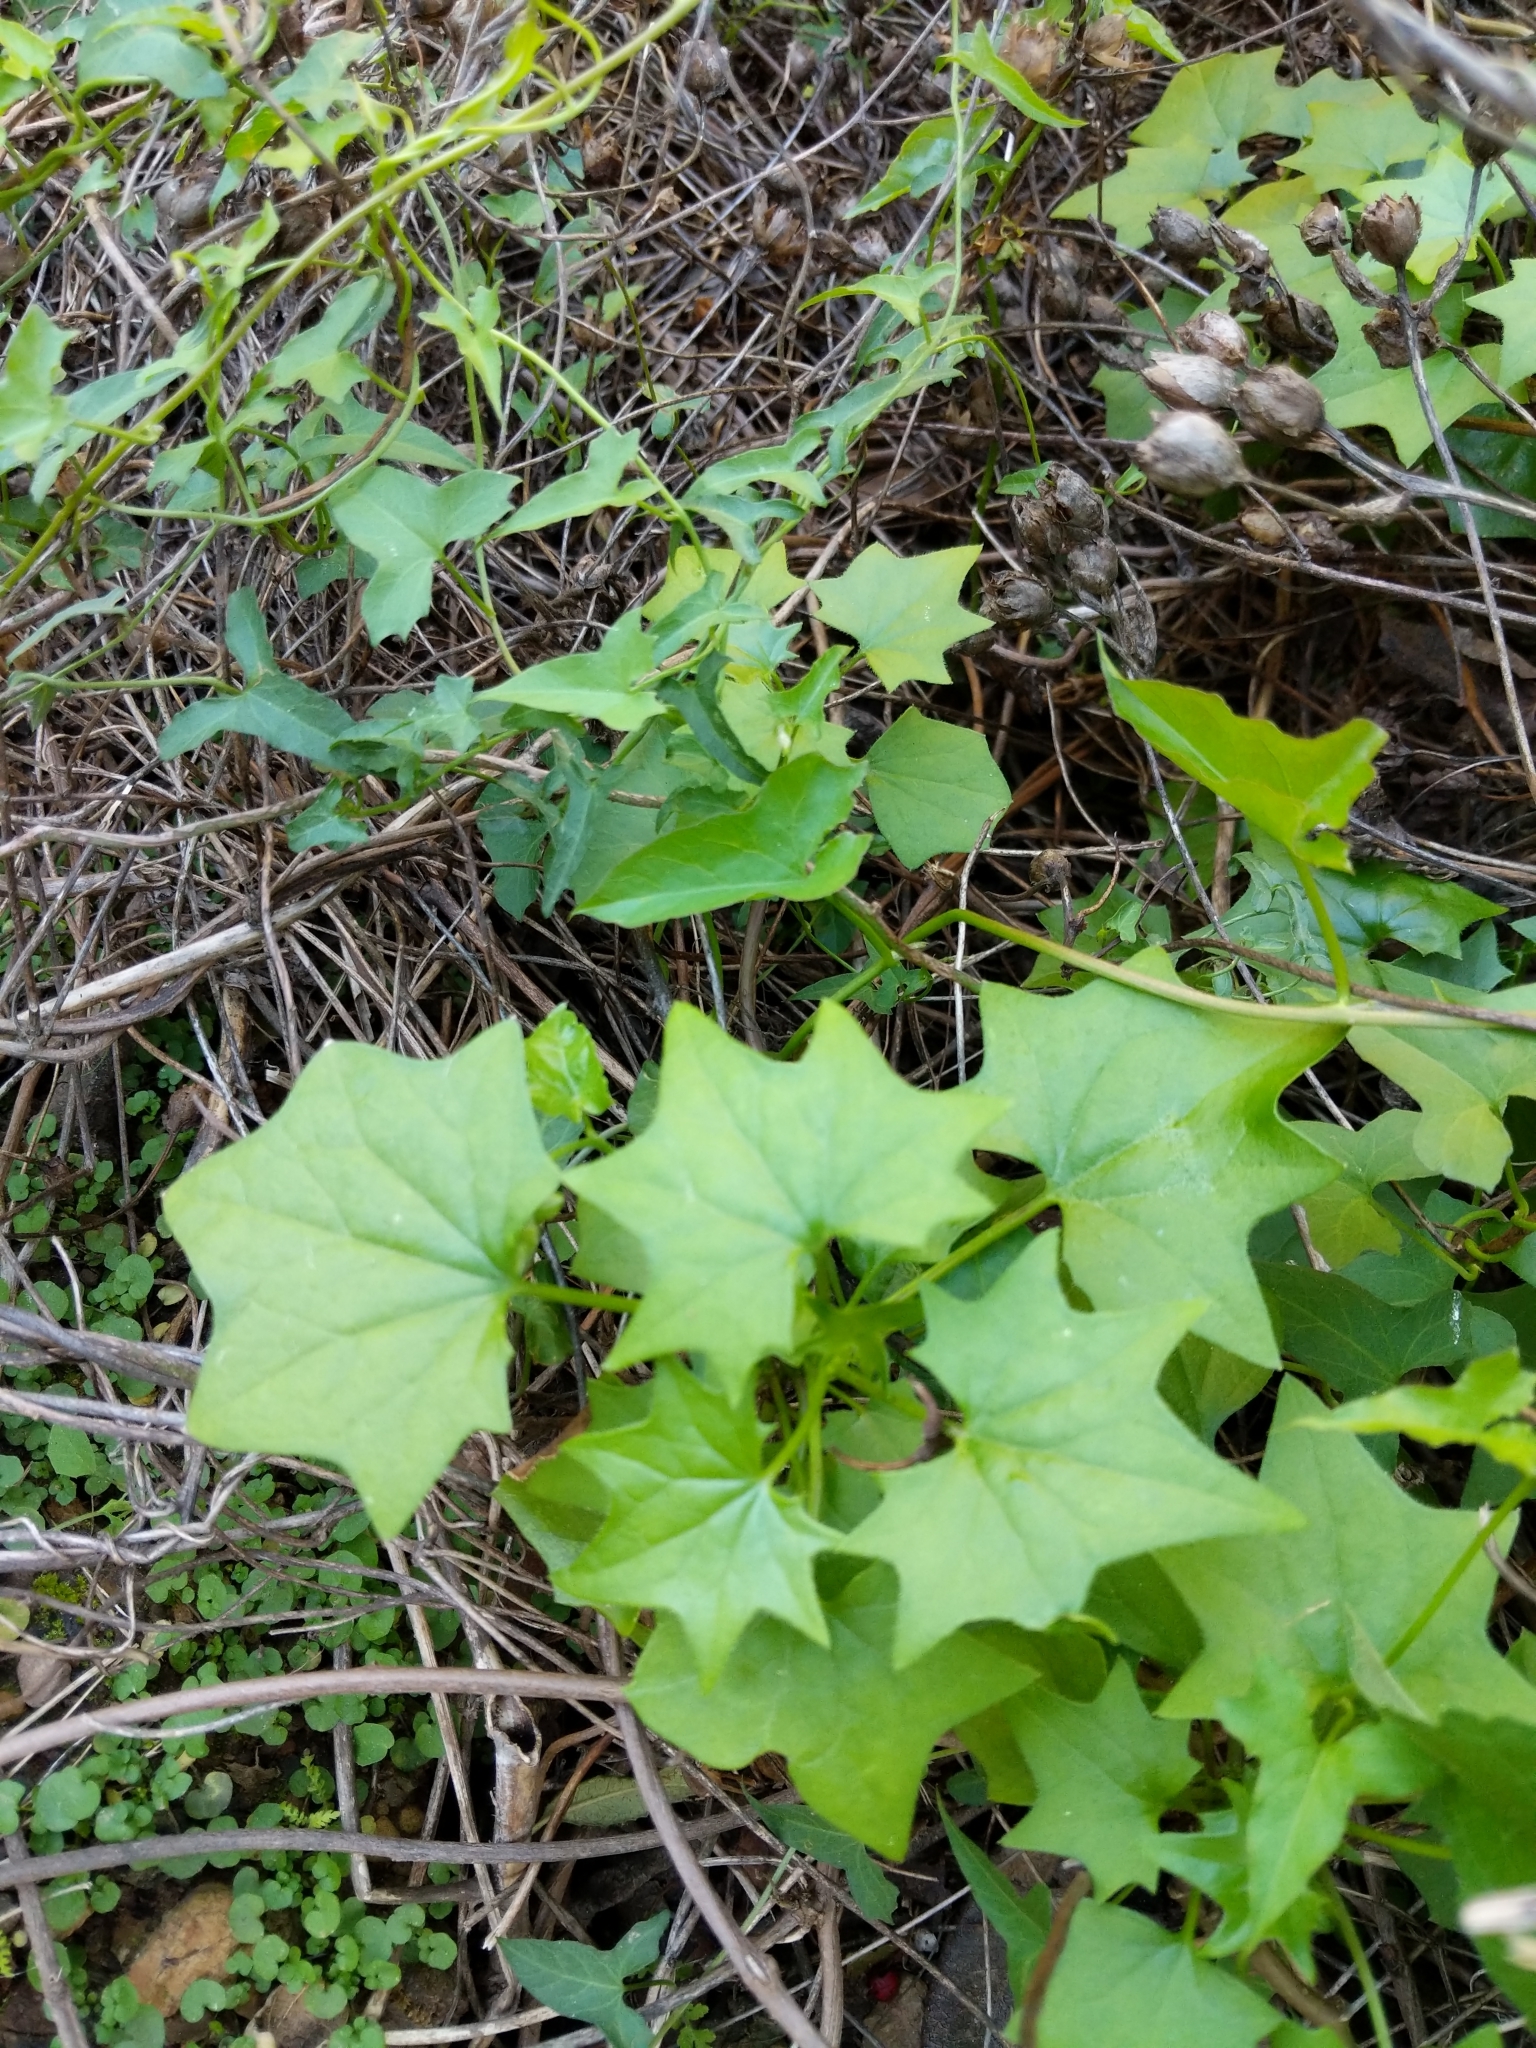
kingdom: Plantae
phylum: Tracheophyta
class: Magnoliopsida
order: Asterales
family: Asteraceae
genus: Delairea
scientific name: Delairea odorata
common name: Cape-ivy
